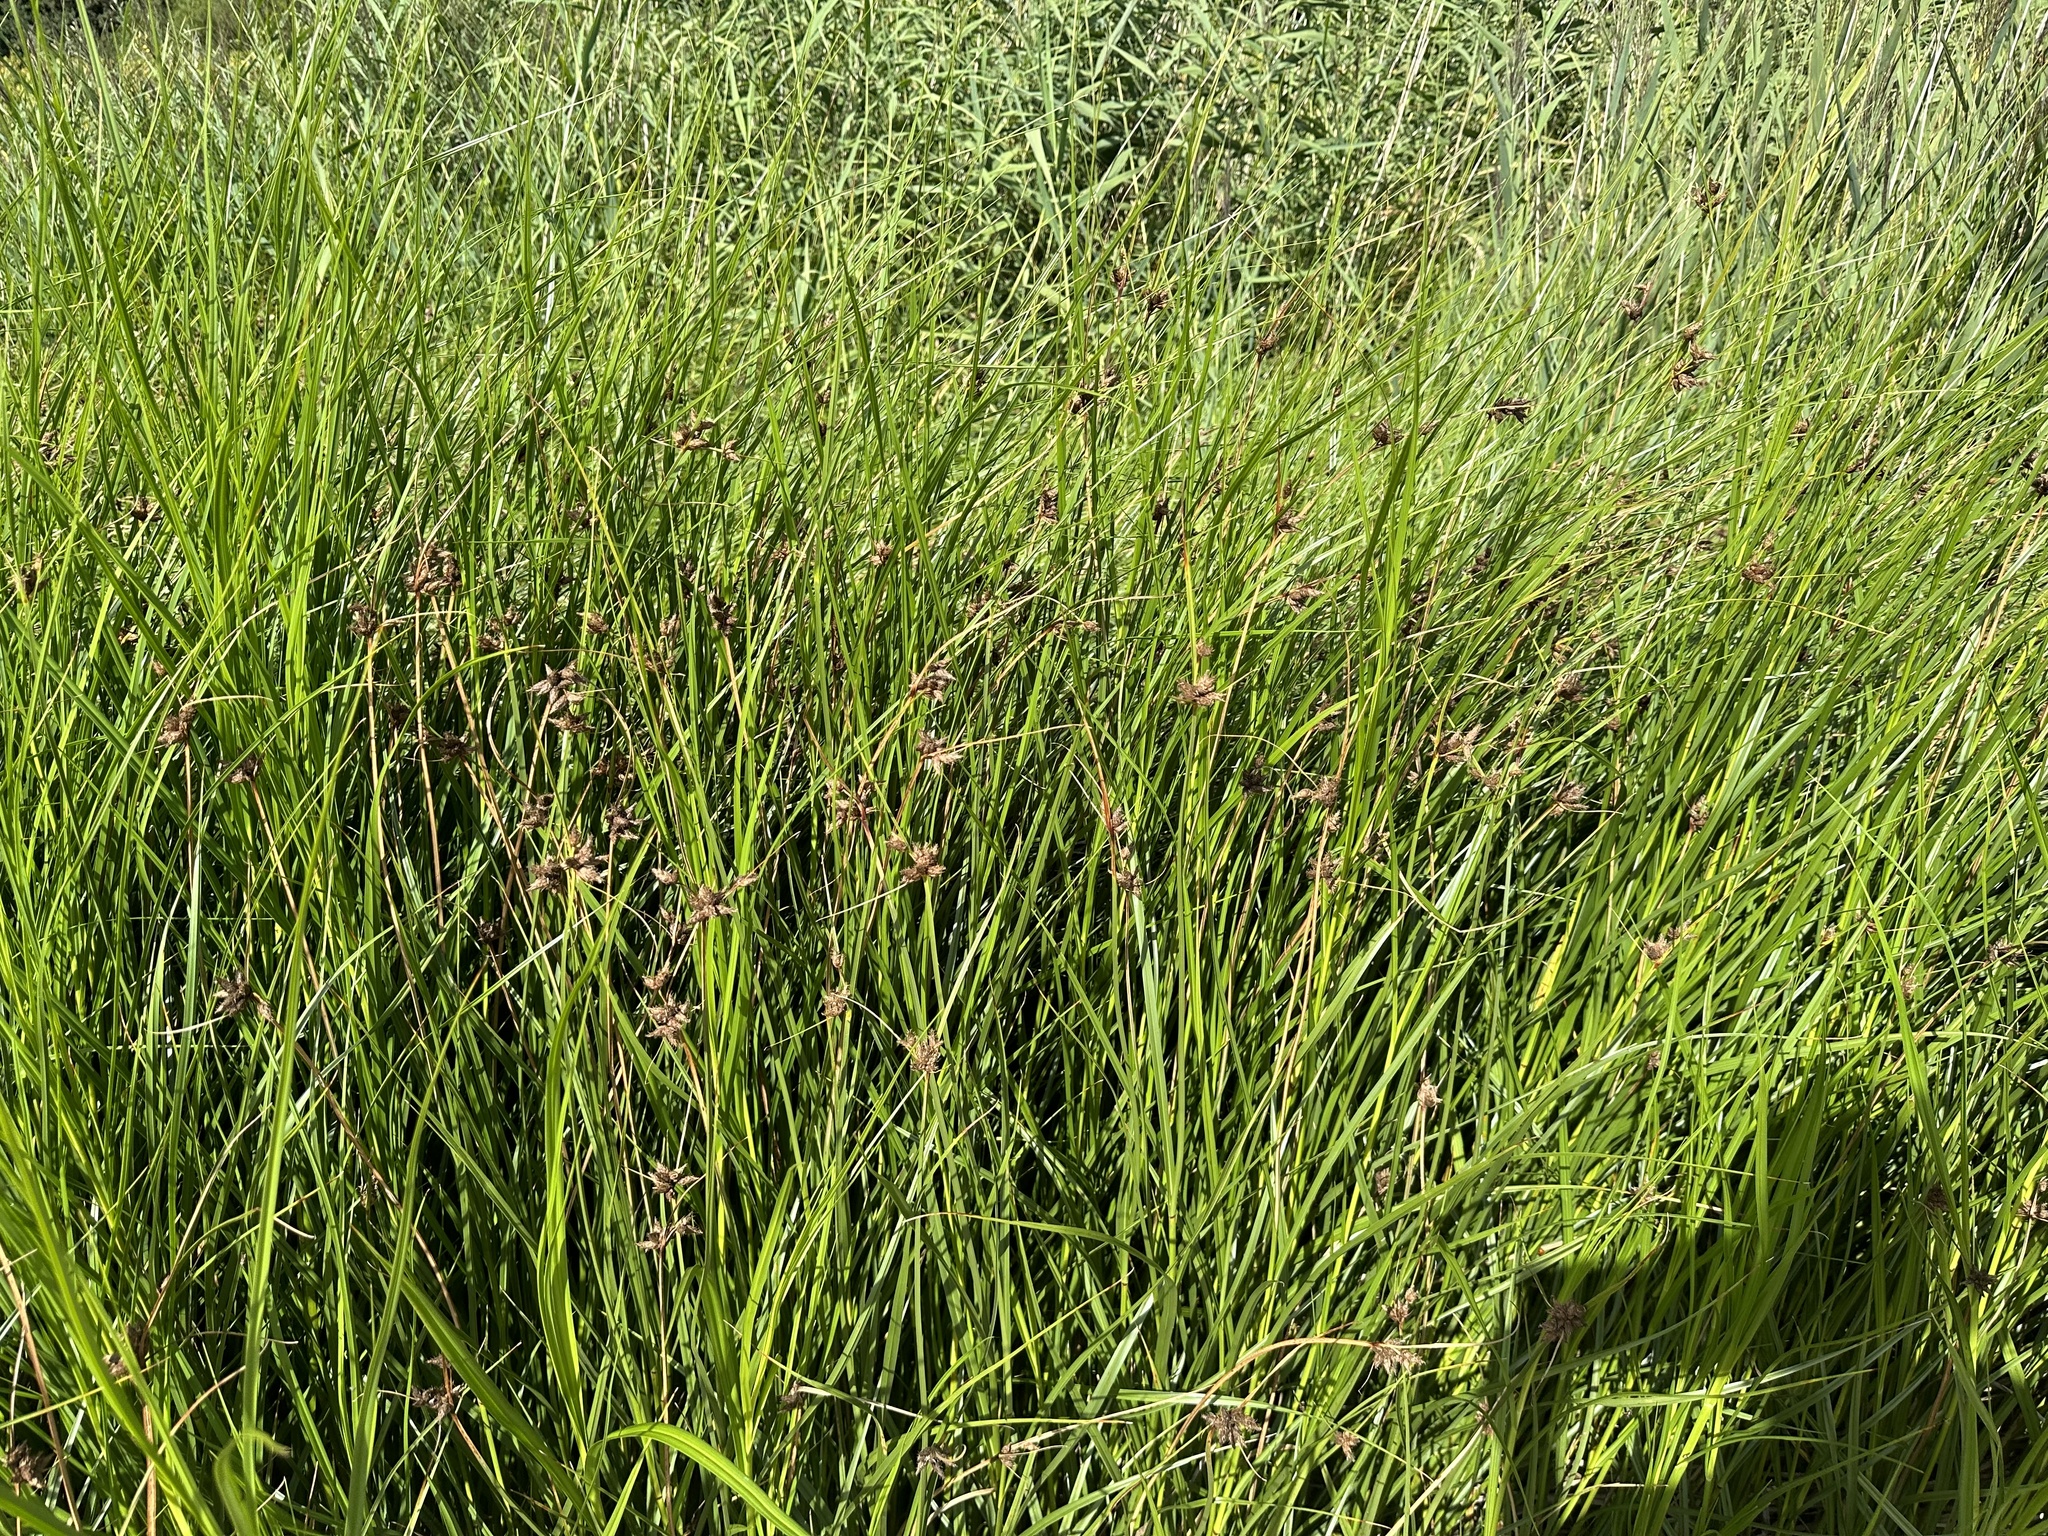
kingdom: Plantae
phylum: Tracheophyta
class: Liliopsida
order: Poales
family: Cyperaceae
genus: Bolboschoenus
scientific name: Bolboschoenus maritimus
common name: Sea club-rush
